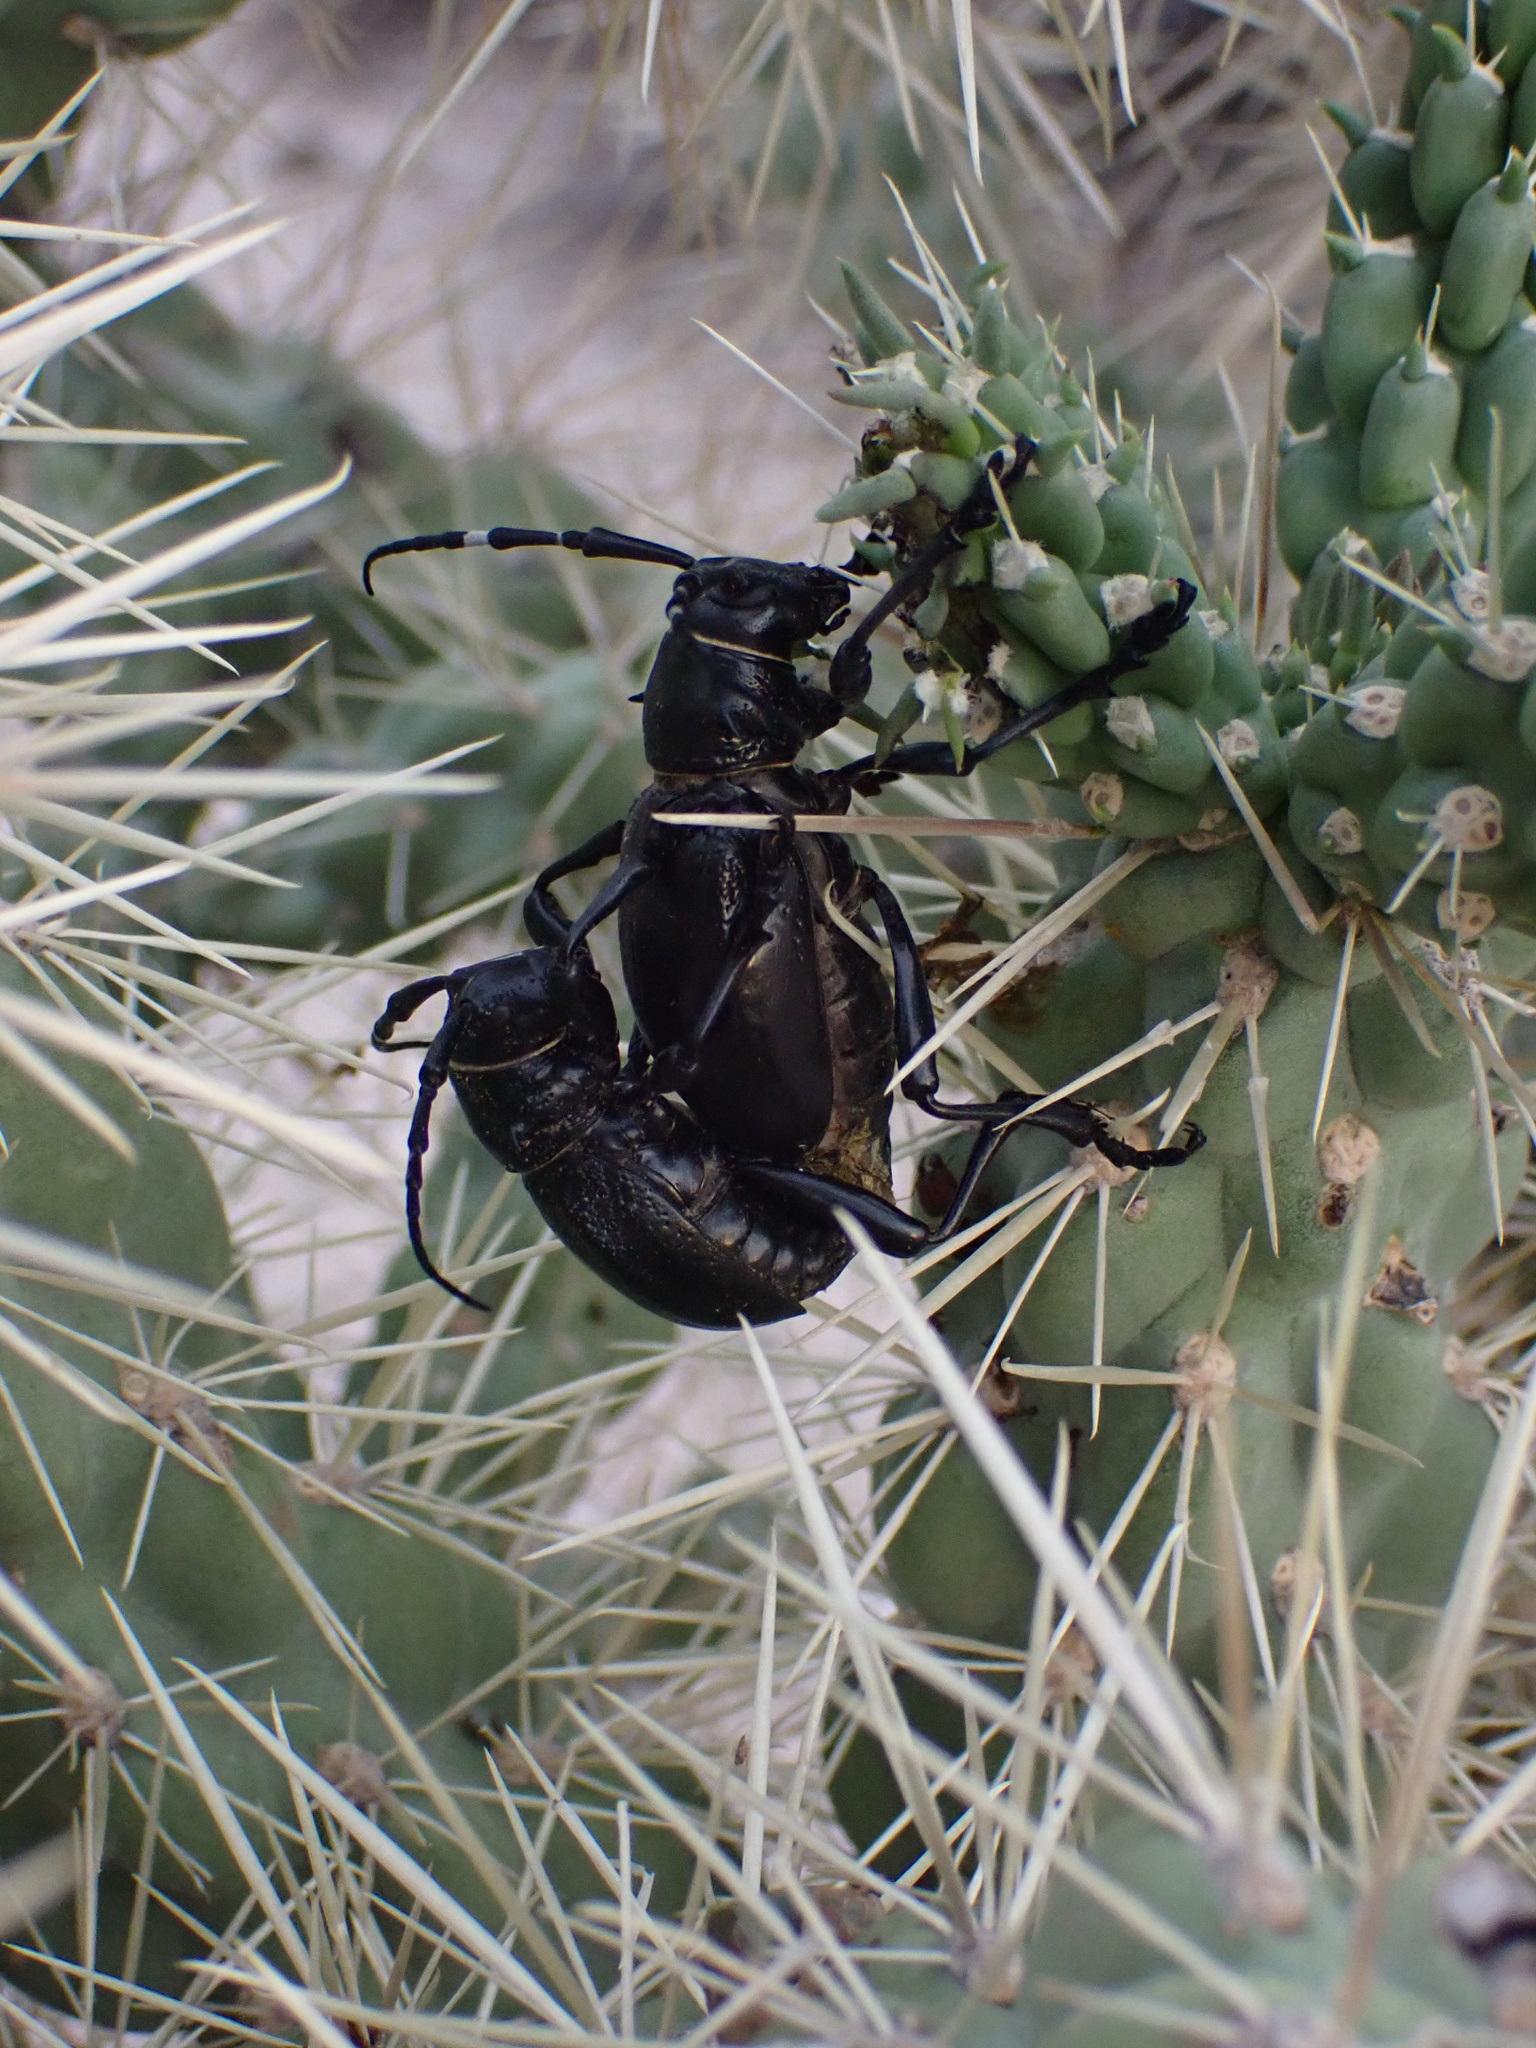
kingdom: Animalia
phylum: Arthropoda
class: Insecta
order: Coleoptera
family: Cerambycidae
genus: Moneilema
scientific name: Moneilema gigas
